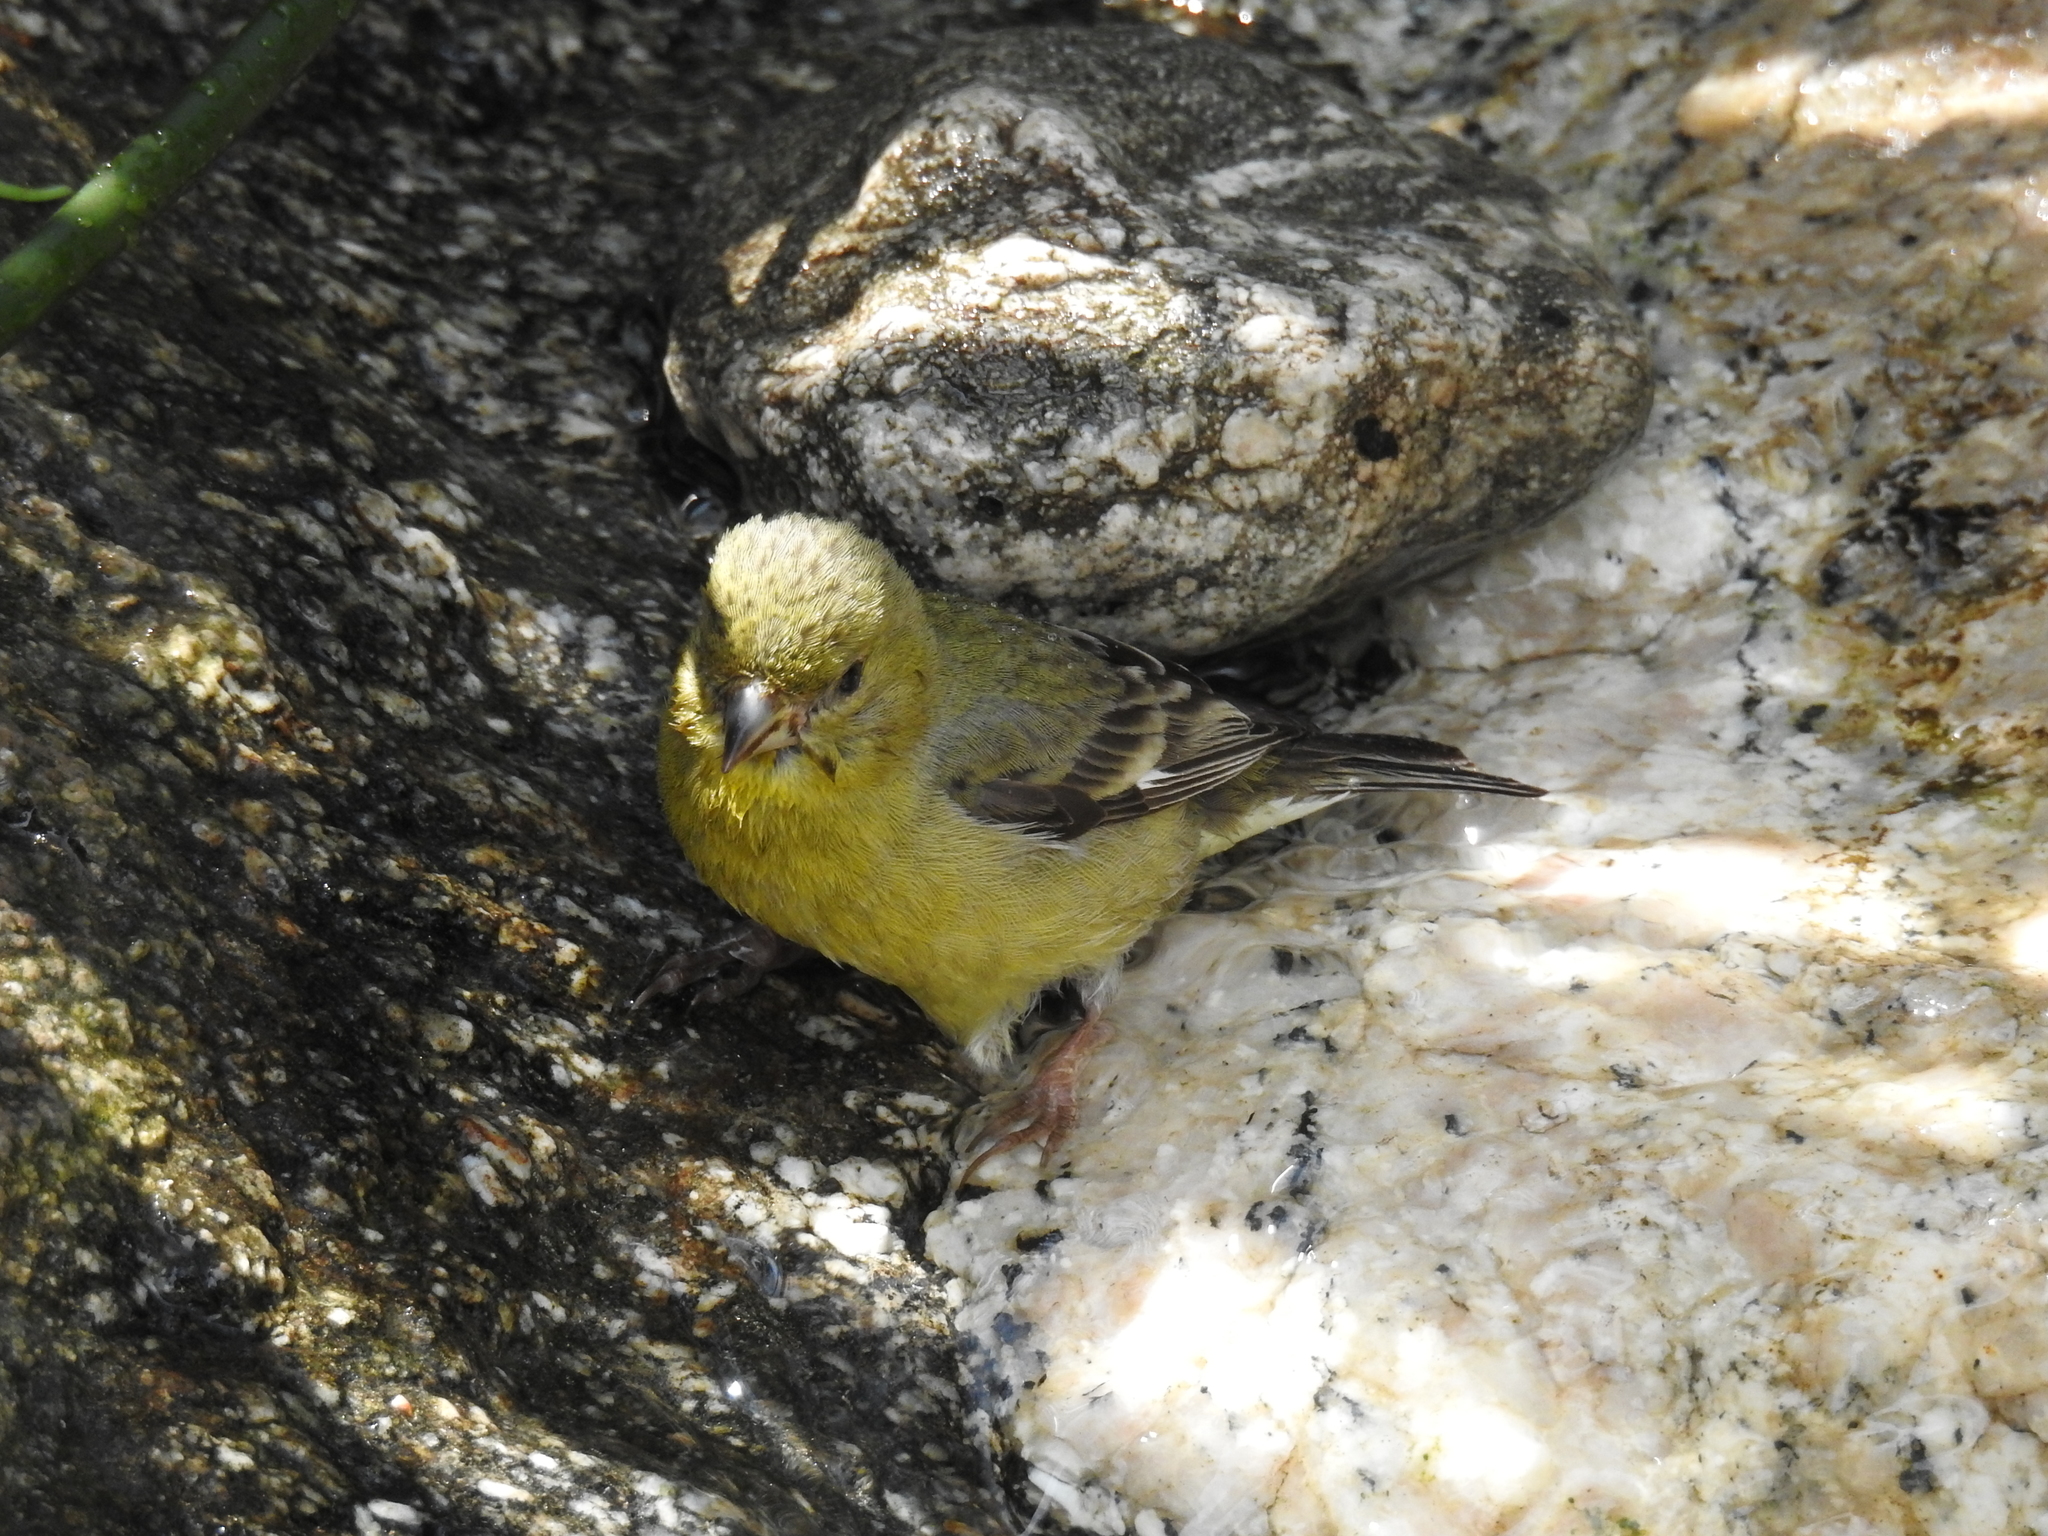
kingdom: Animalia
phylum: Chordata
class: Aves
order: Passeriformes
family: Fringillidae
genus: Spinus
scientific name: Spinus psaltria
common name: Lesser goldfinch
